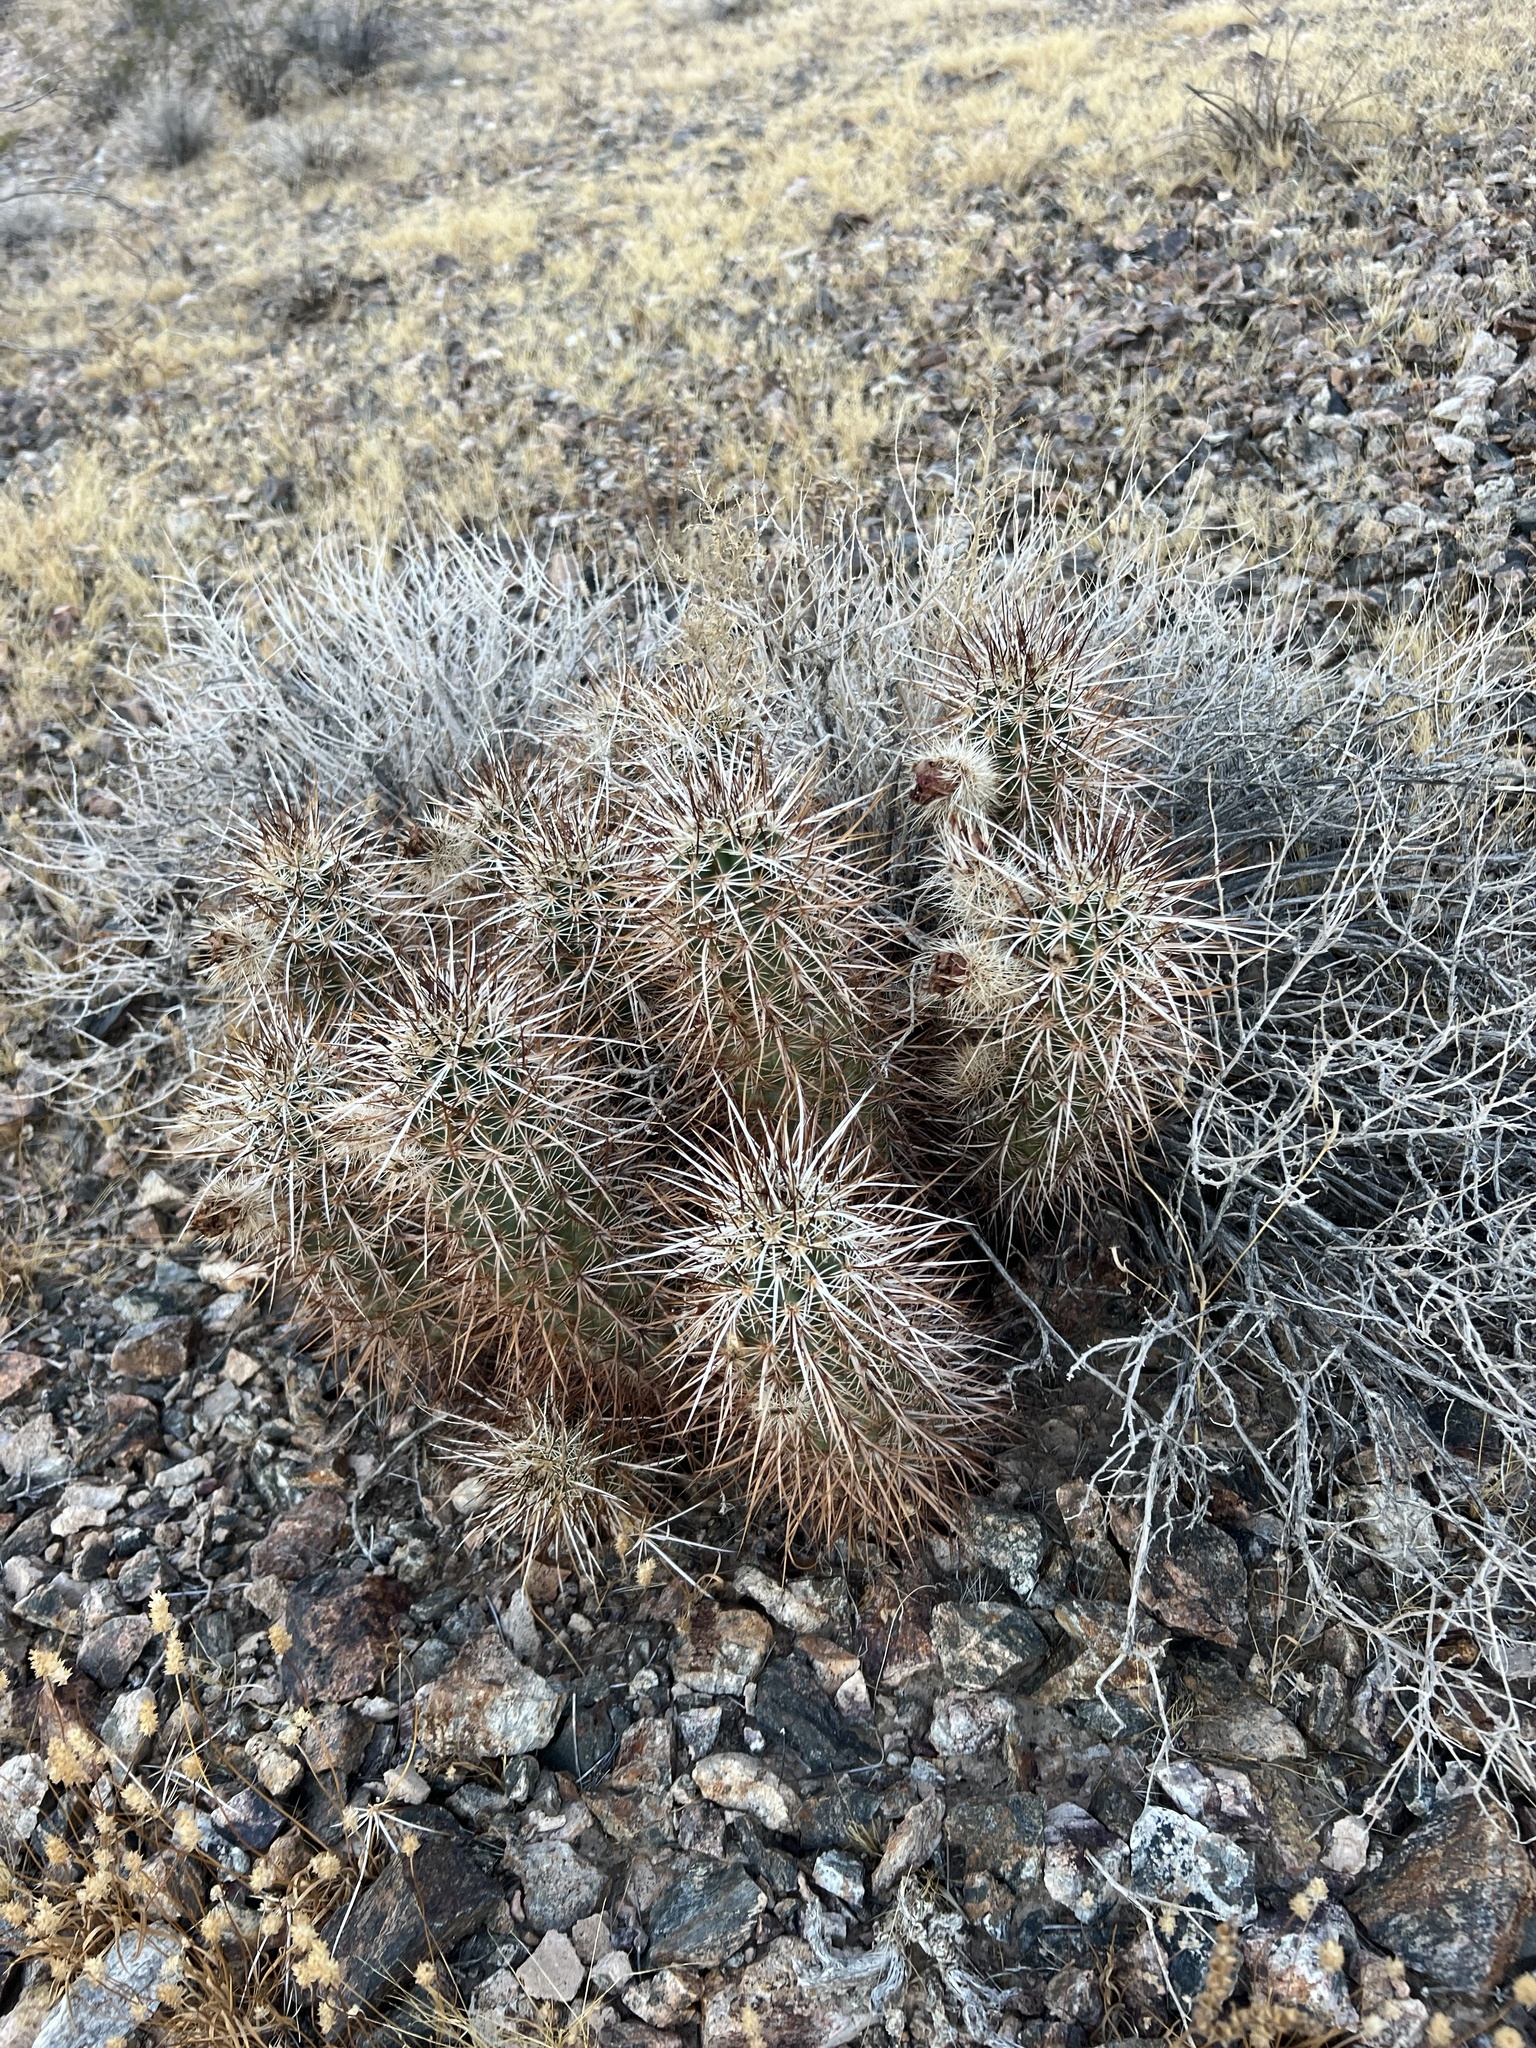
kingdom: Plantae
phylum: Tracheophyta
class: Magnoliopsida
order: Caryophyllales
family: Cactaceae
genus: Echinocereus
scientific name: Echinocereus engelmannii
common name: Engelmann's hedgehog cactus
